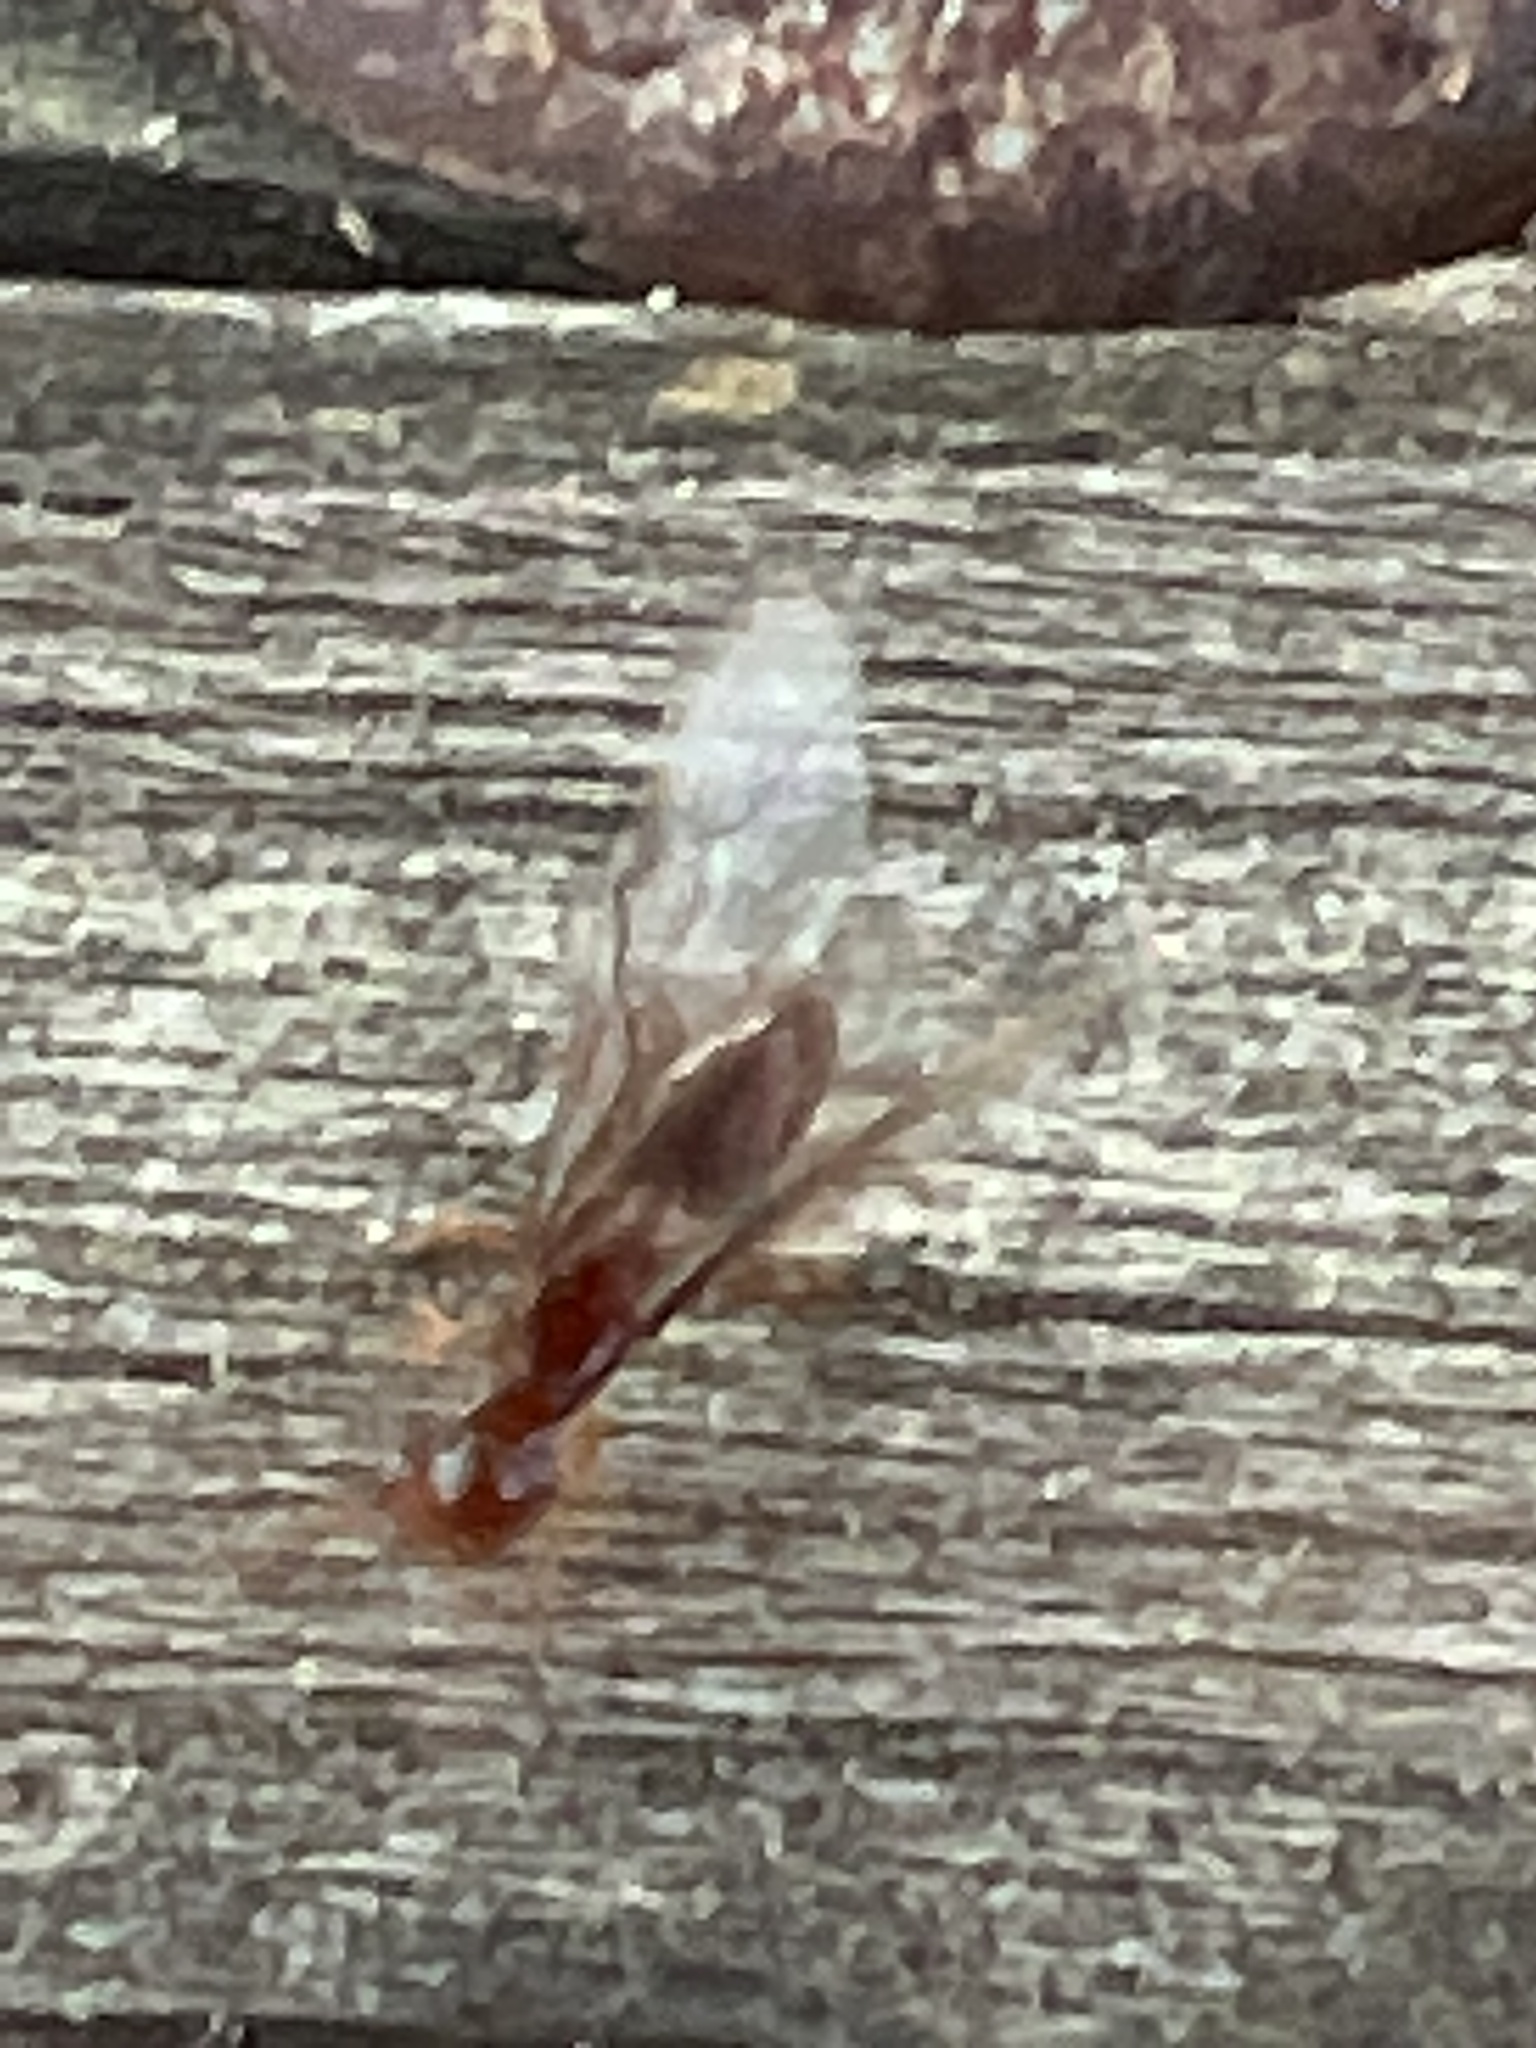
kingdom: Animalia
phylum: Arthropoda
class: Insecta
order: Hymenoptera
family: Formicidae
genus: Lasius
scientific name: Lasius claviger
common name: Common citronella ant
